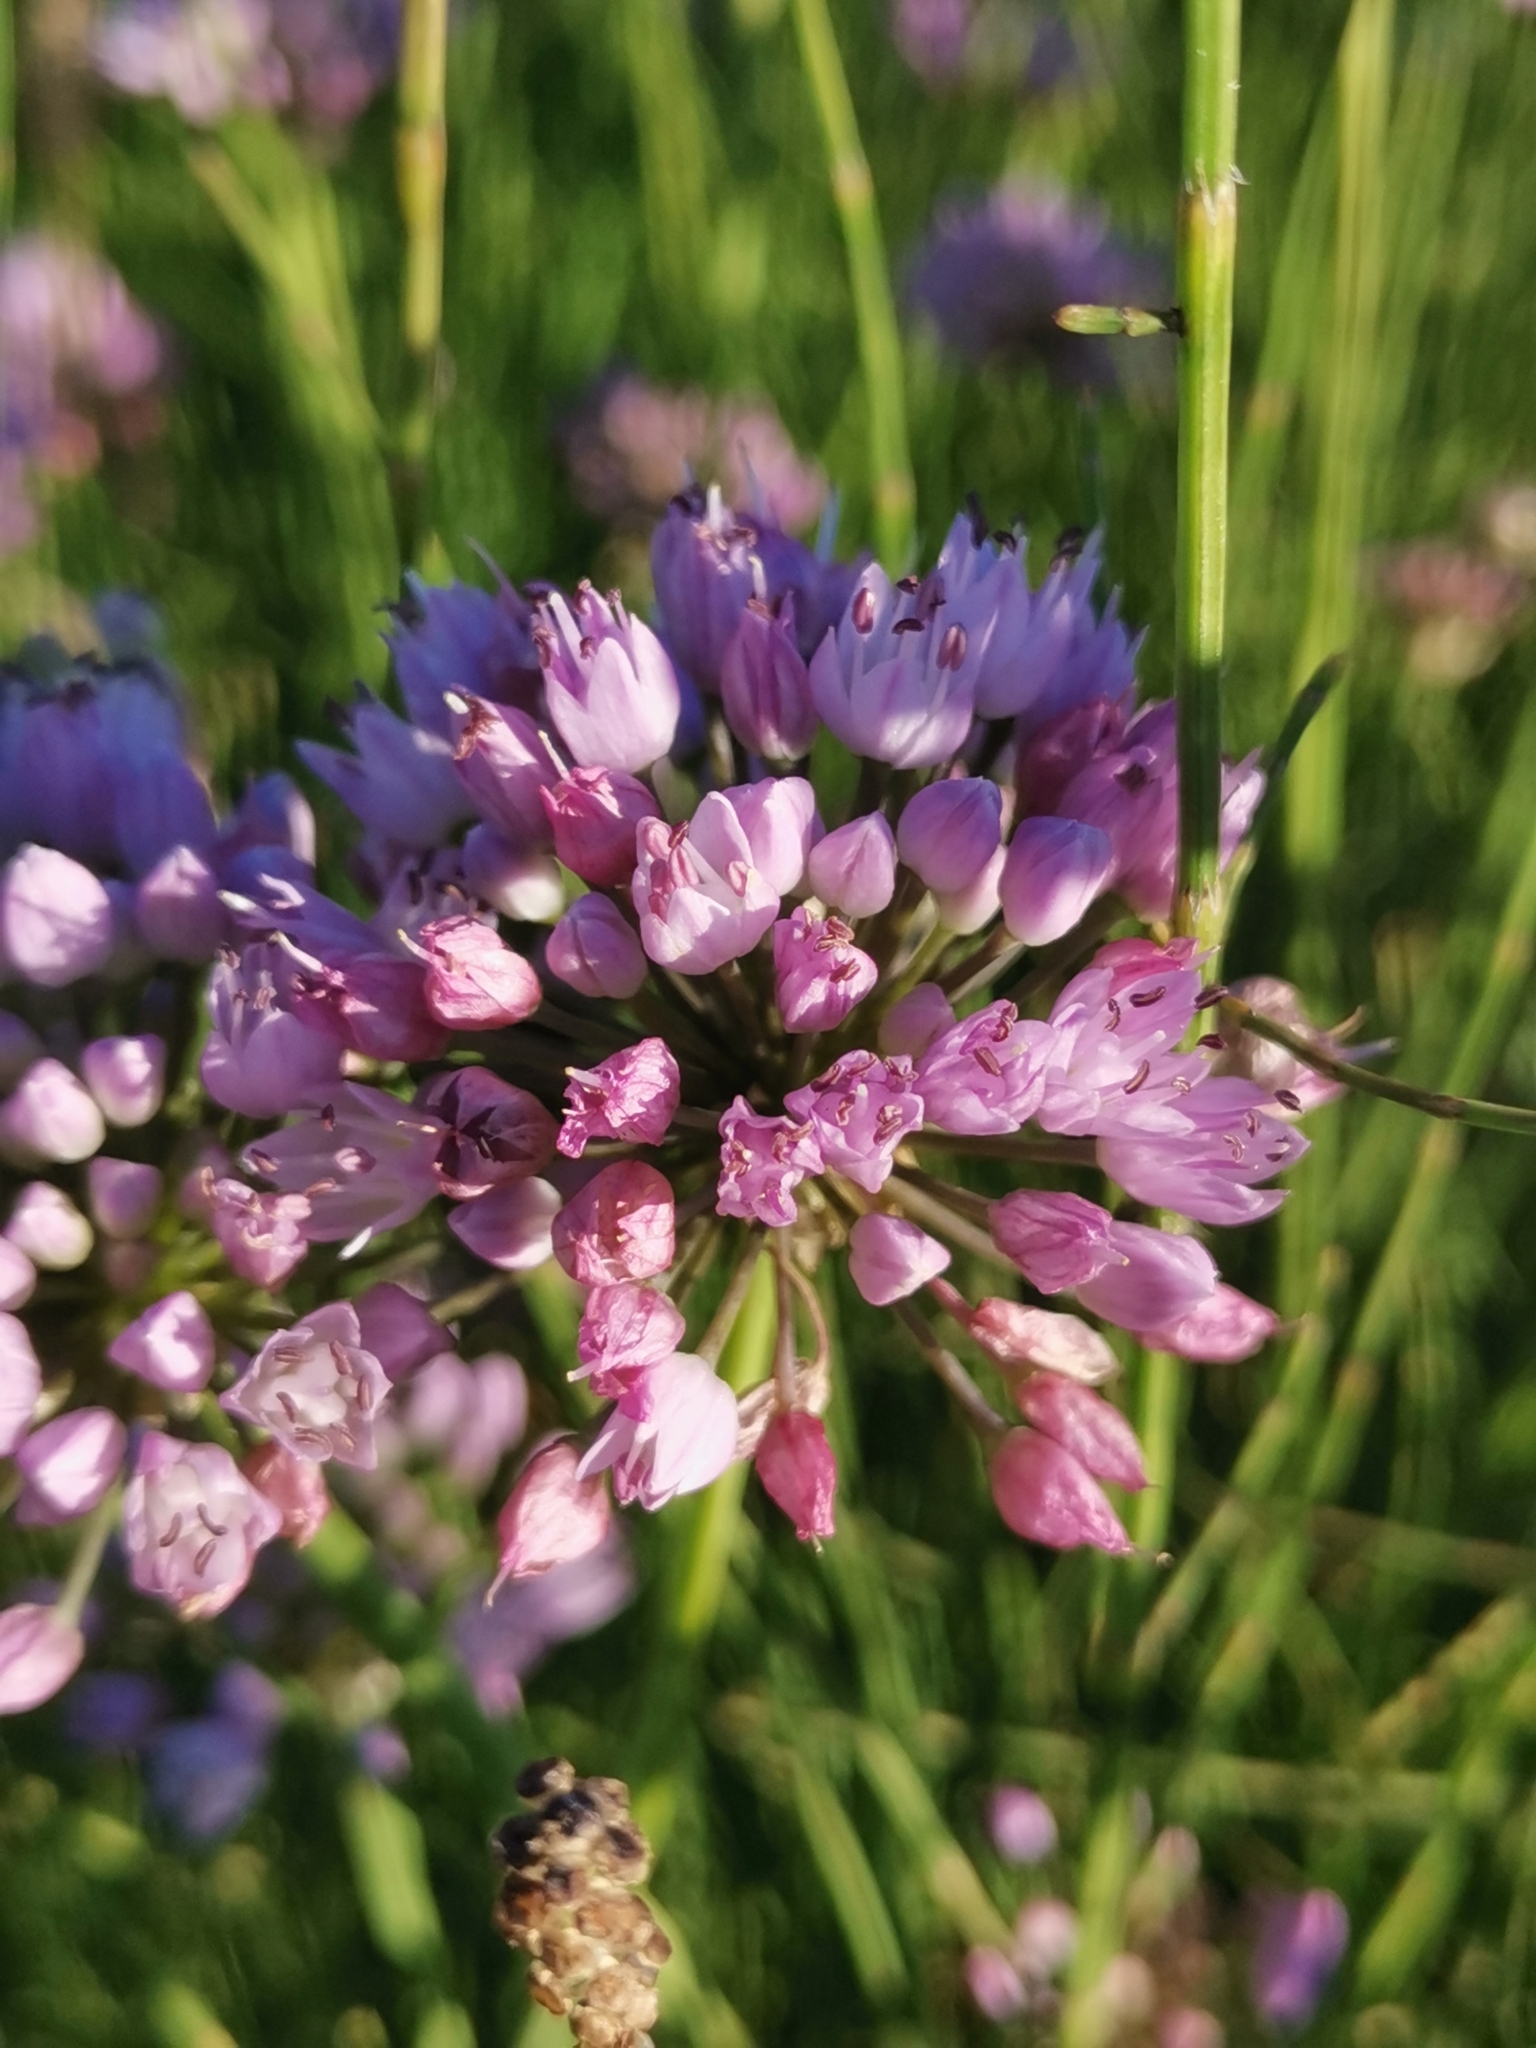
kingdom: Plantae
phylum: Tracheophyta
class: Liliopsida
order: Asparagales
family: Amaryllidaceae
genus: Allium
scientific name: Allium angulosum
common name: Mouse garlic
